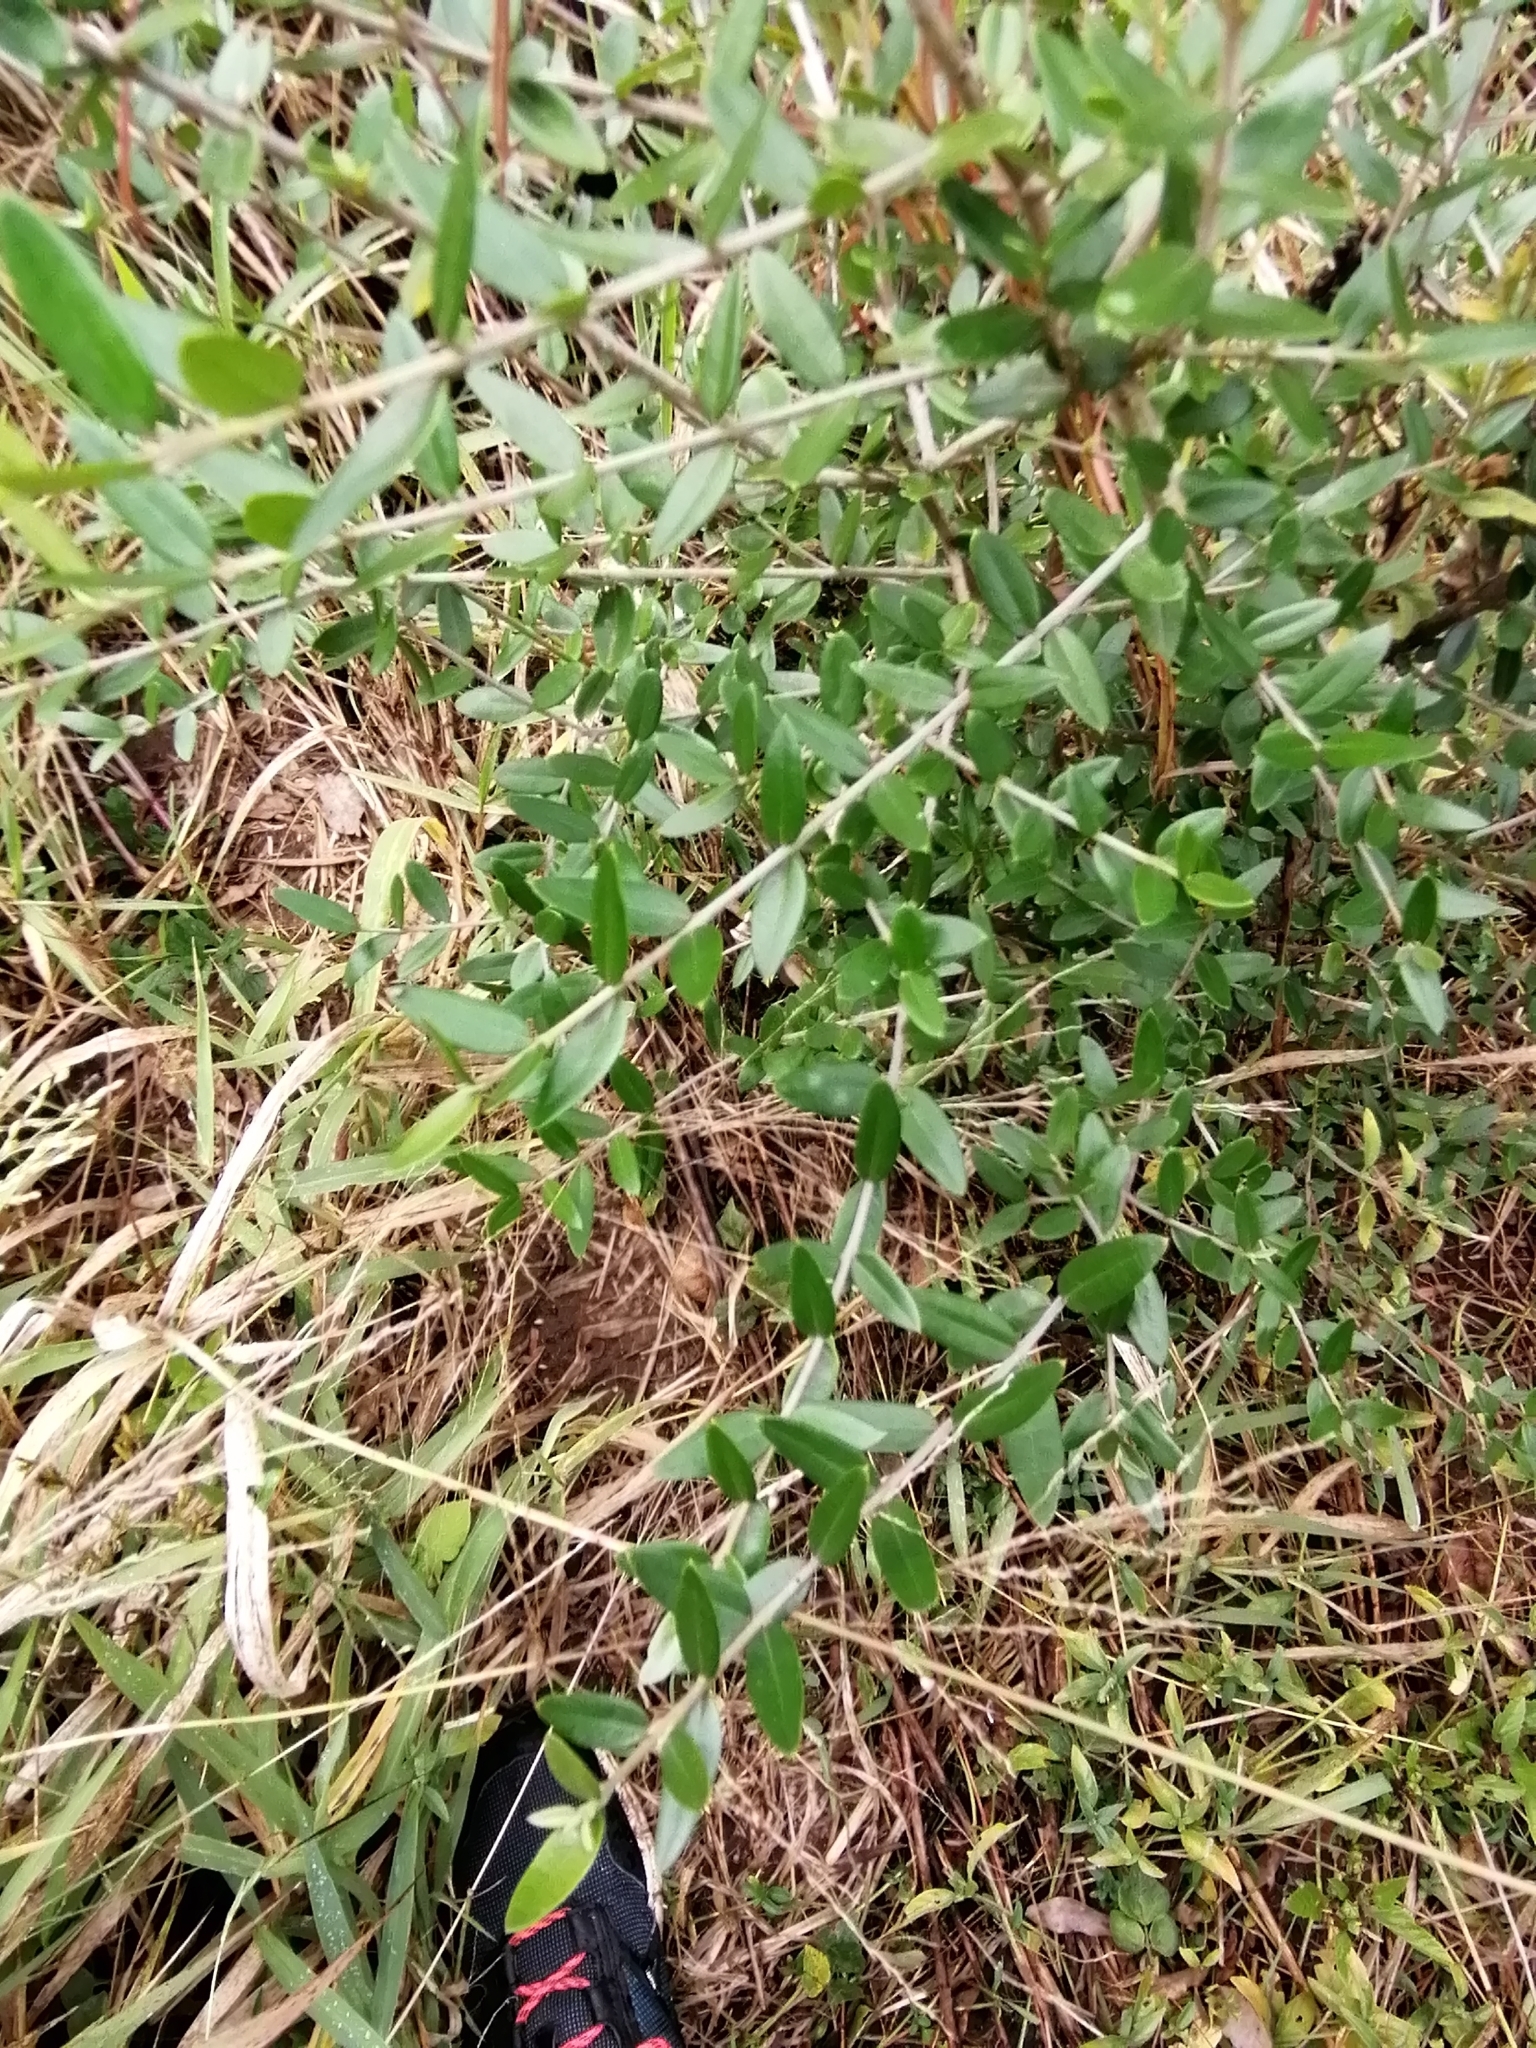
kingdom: Plantae
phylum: Tracheophyta
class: Magnoliopsida
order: Lamiales
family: Oleaceae
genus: Olea
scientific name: Olea europaea
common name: Olive
